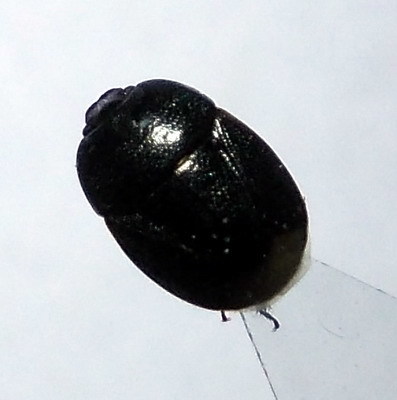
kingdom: Animalia
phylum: Arthropoda
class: Insecta
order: Hemiptera
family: Cydnidae
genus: Legnotus
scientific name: Legnotus picipes
